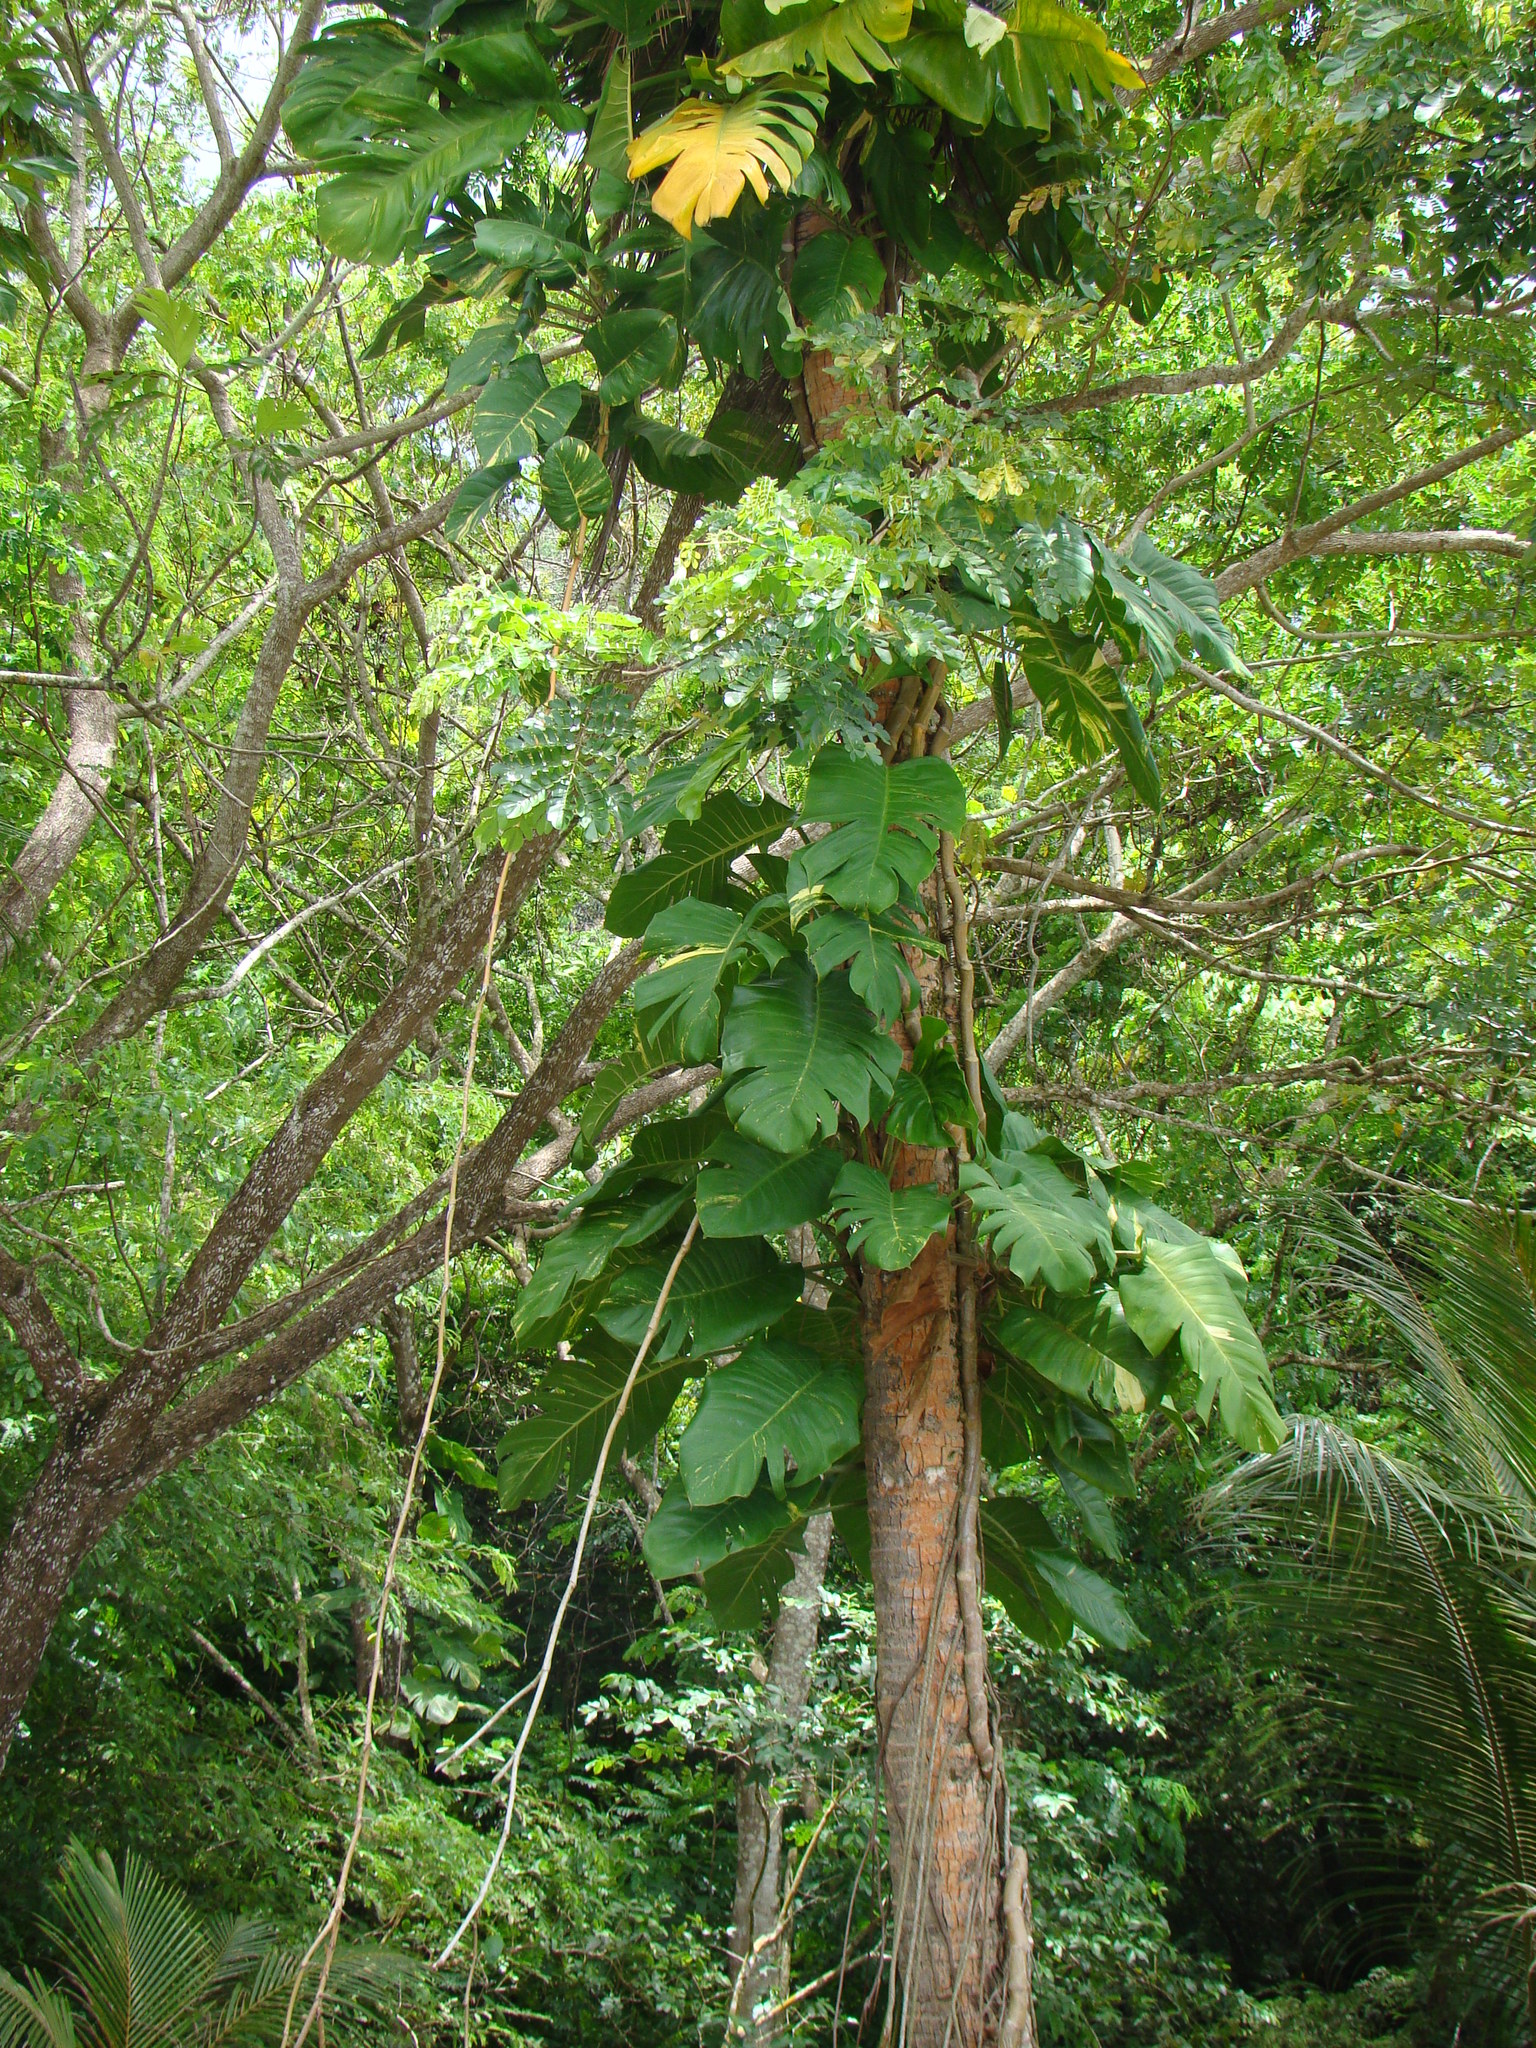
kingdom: Plantae
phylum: Tracheophyta
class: Liliopsida
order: Alismatales
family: Araceae
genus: Epipremnum
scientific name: Epipremnum aureum
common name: Golden hunter's-robe
